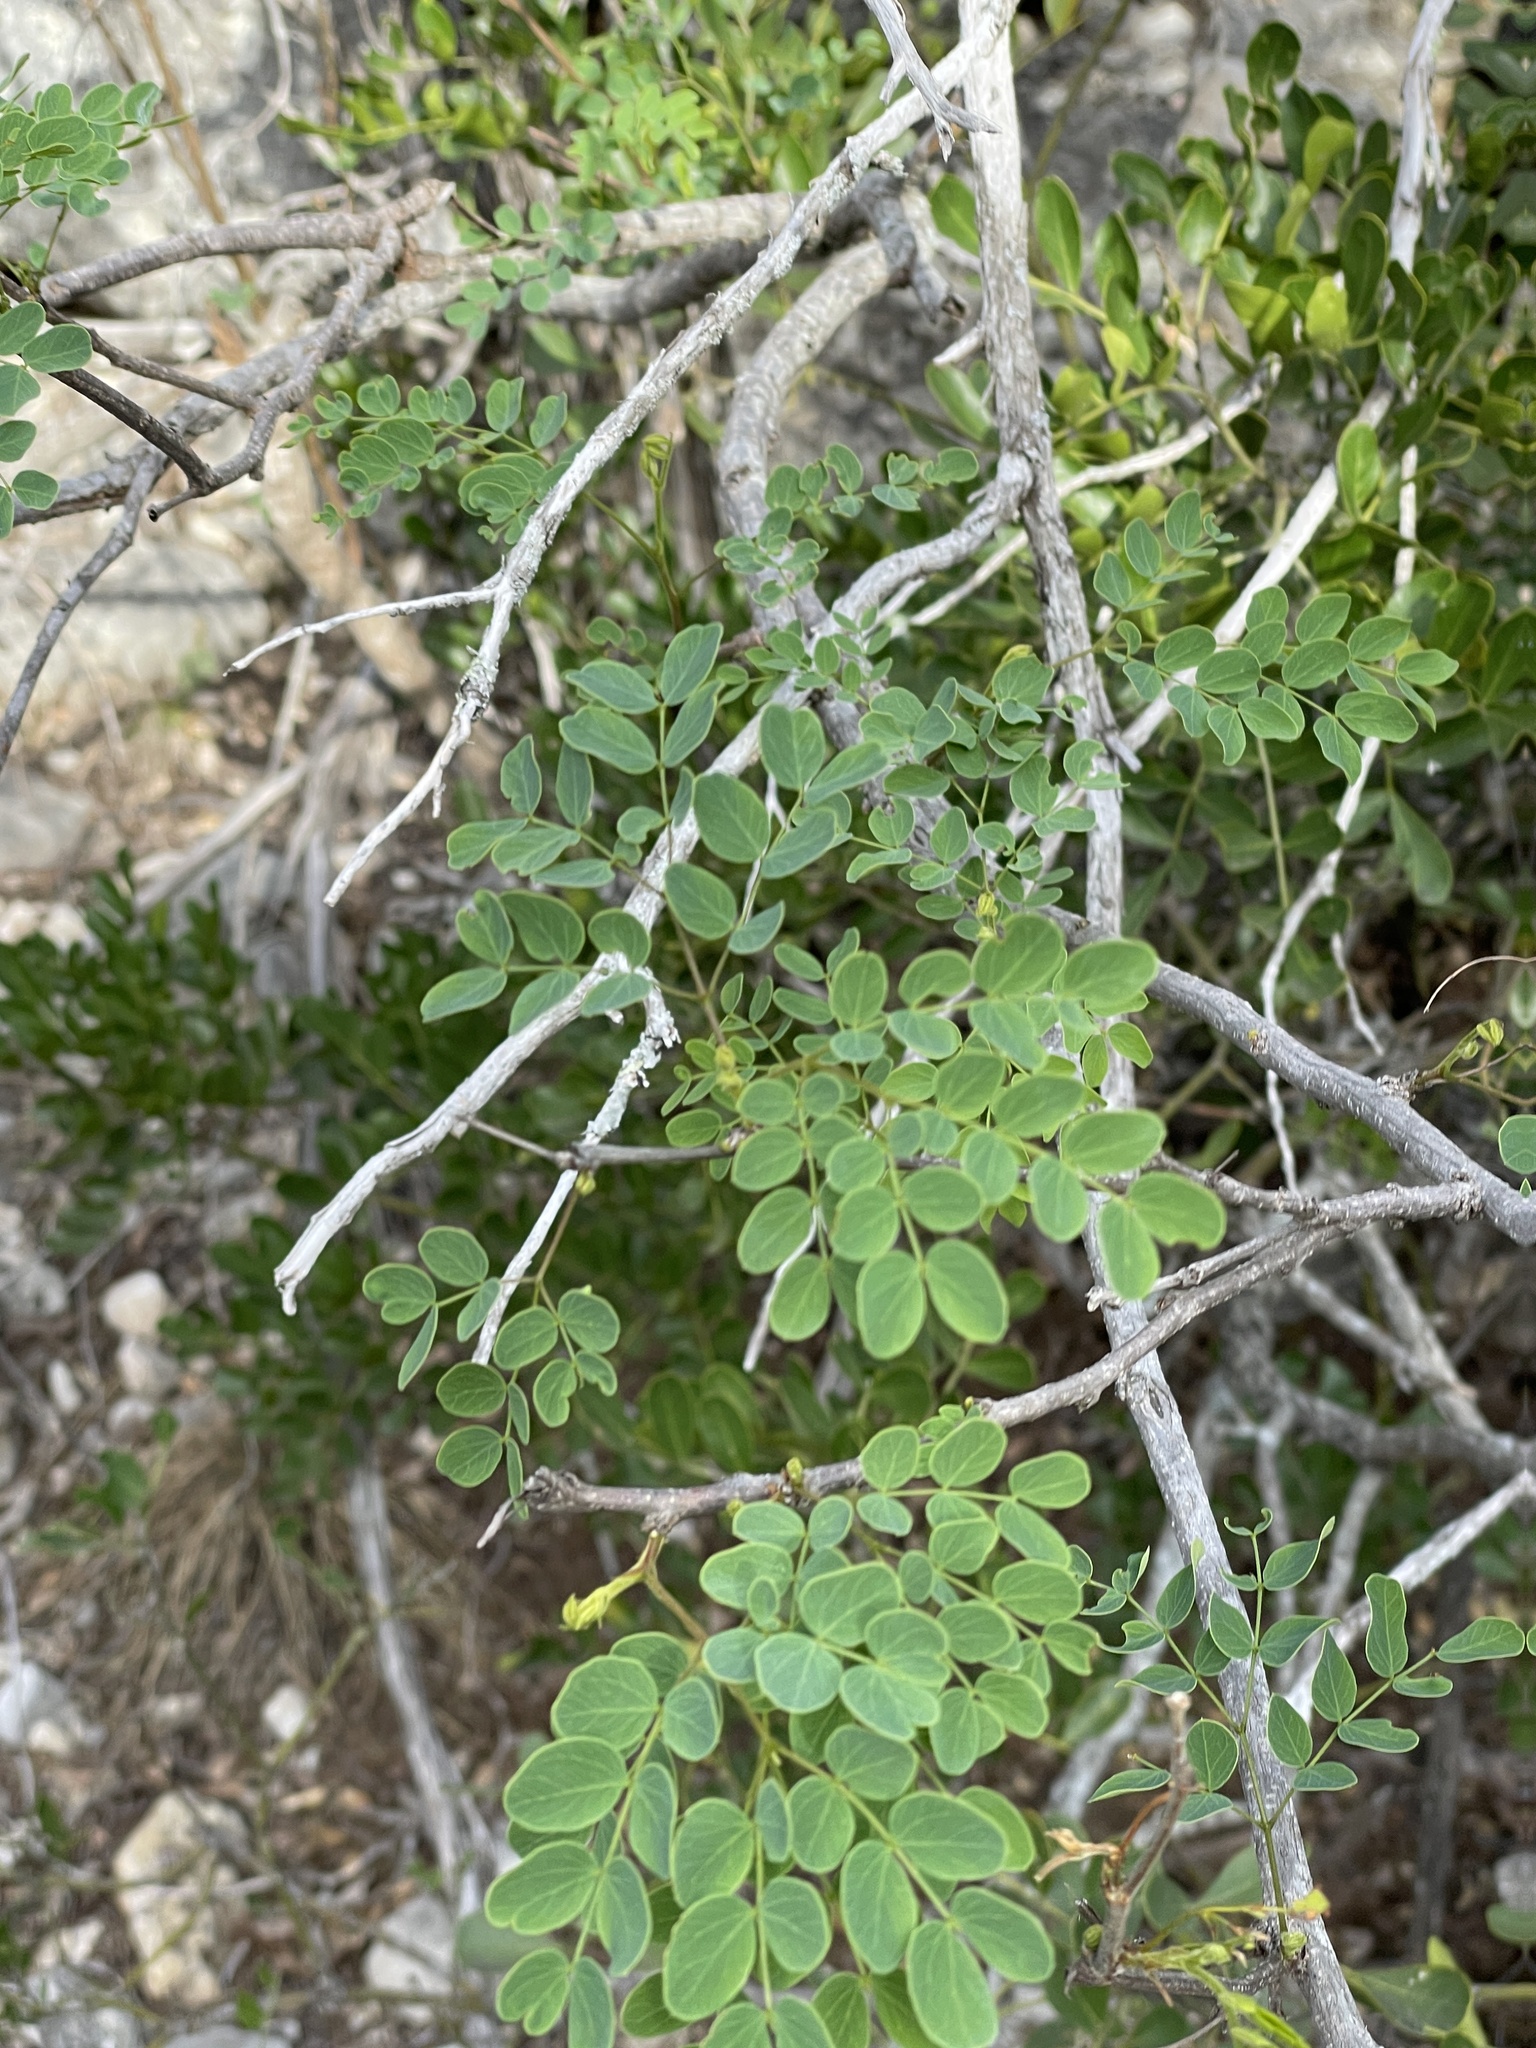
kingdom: Plantae
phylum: Tracheophyta
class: Magnoliopsida
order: Fabales
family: Fabaceae
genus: Leucaena
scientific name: Leucaena retusa
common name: Littleleaf leadtree
